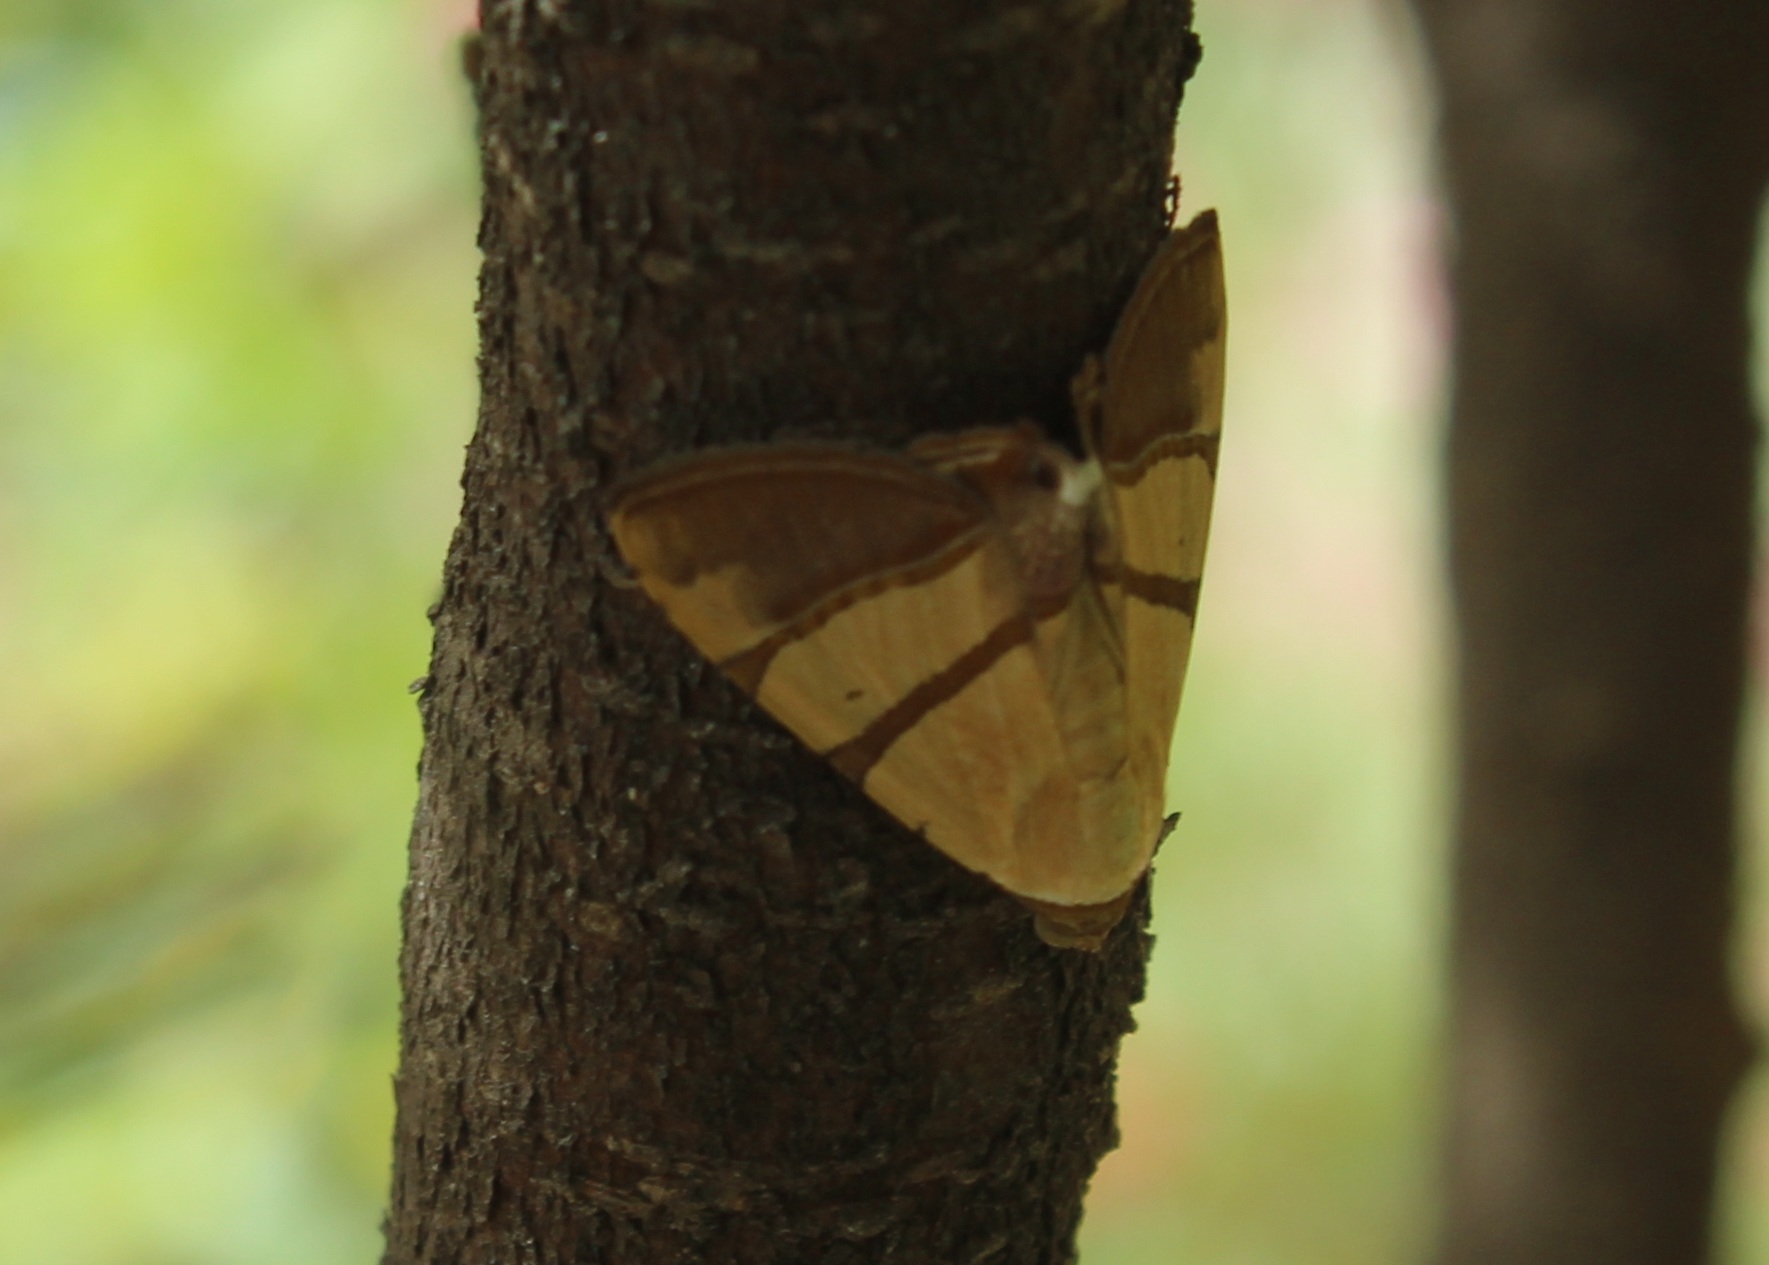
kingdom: Animalia
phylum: Arthropoda
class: Insecta
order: Lepidoptera
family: Erebidae
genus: Eulepidotis
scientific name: Eulepidotis juncida
